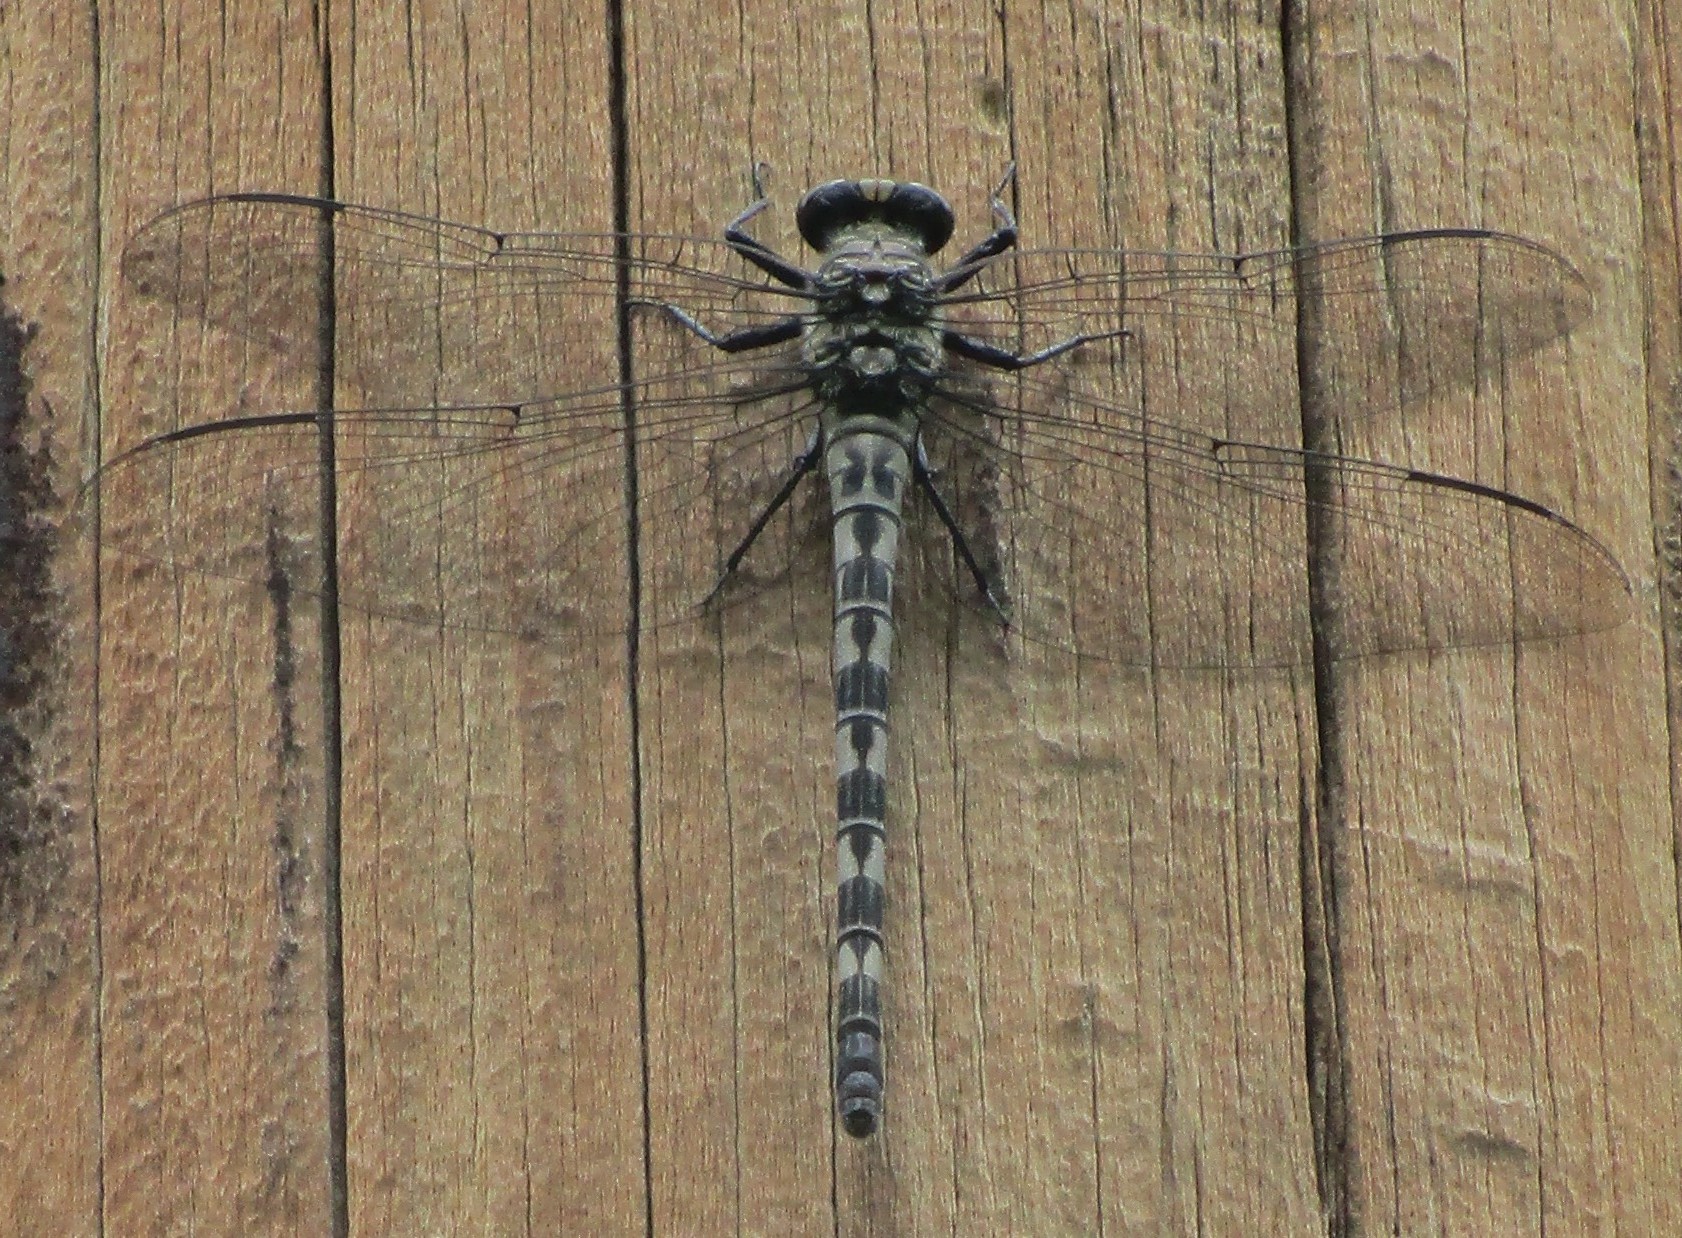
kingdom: Animalia
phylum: Arthropoda
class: Insecta
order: Odonata
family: Petaluridae
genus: Tachopteryx
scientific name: Tachopteryx thoreyi
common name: Gray petaltail
